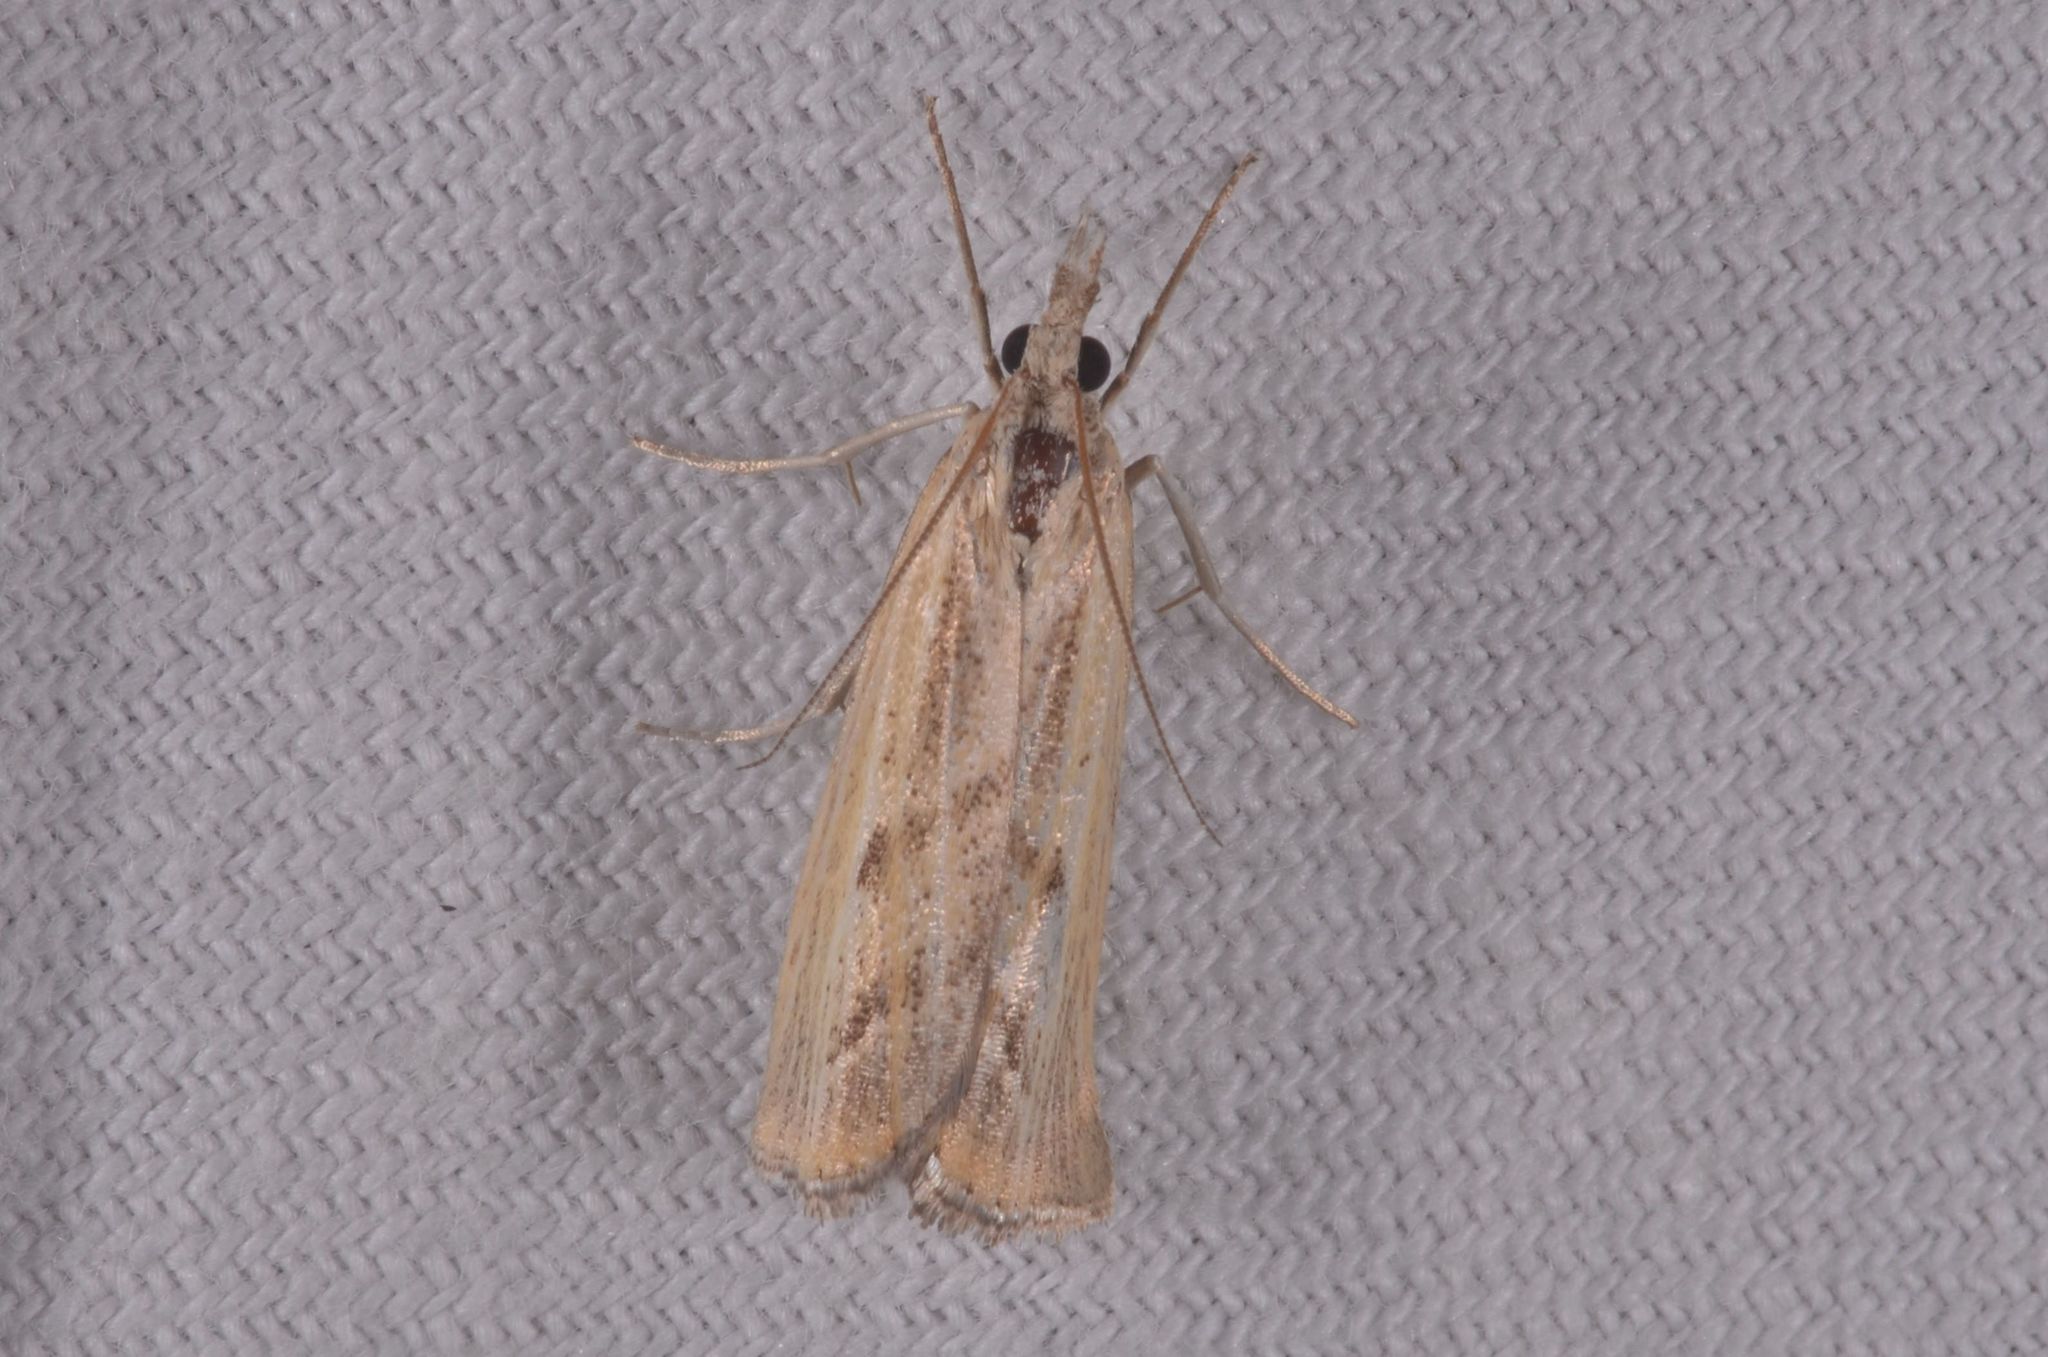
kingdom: Animalia
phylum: Arthropoda
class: Insecta
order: Lepidoptera
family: Crambidae
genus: Agriphila
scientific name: Agriphila inquinatella
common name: Barred grass-veneer
